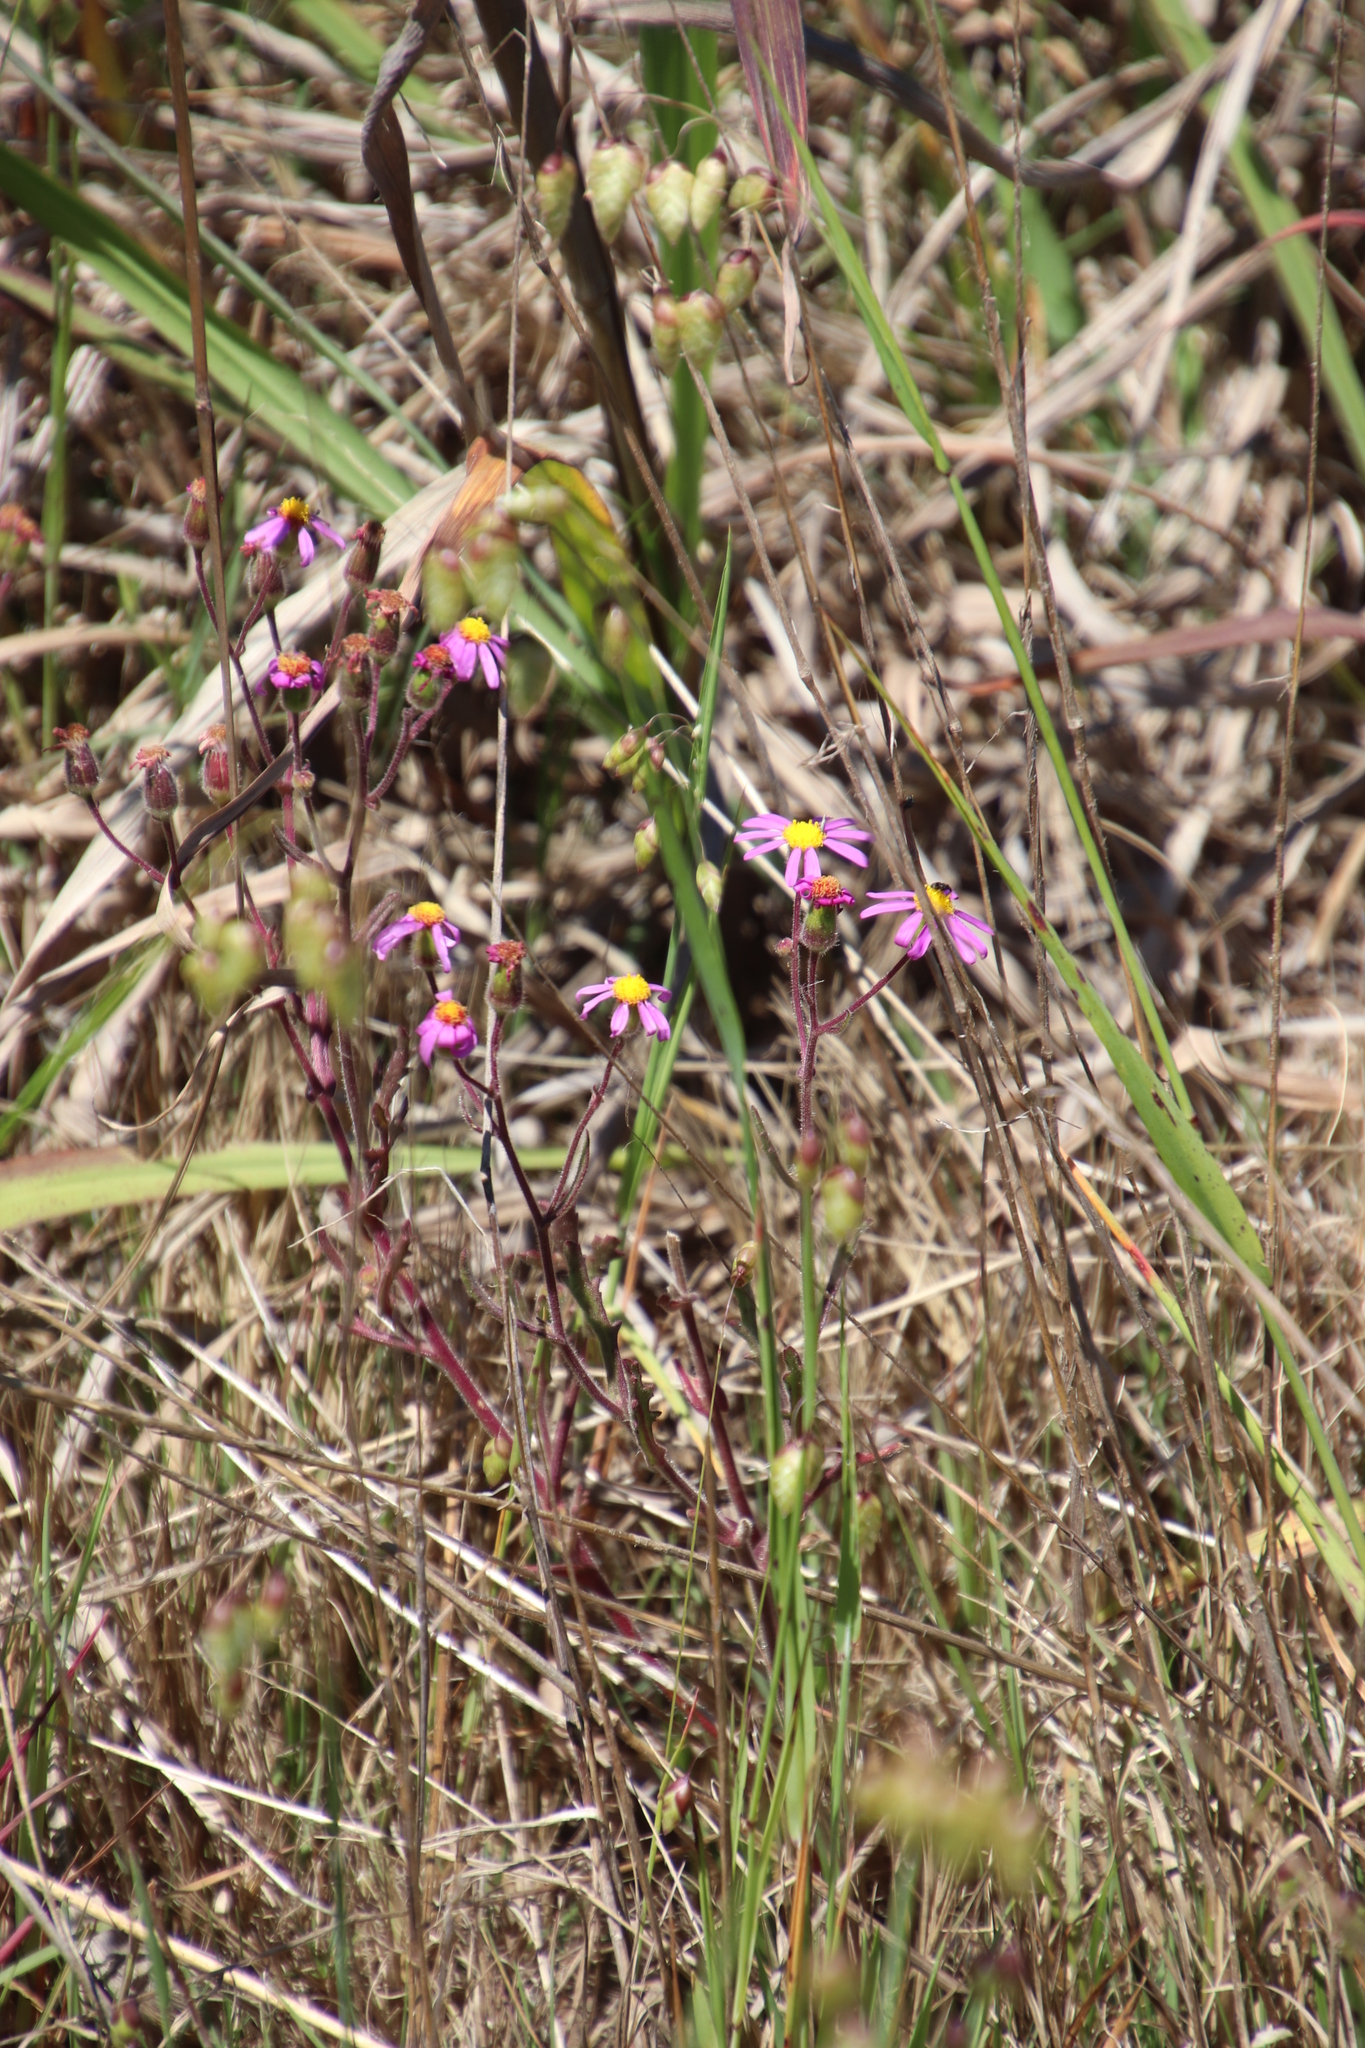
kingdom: Plantae
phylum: Tracheophyta
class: Magnoliopsida
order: Asterales
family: Asteraceae
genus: Senecio
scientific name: Senecio arenarius
